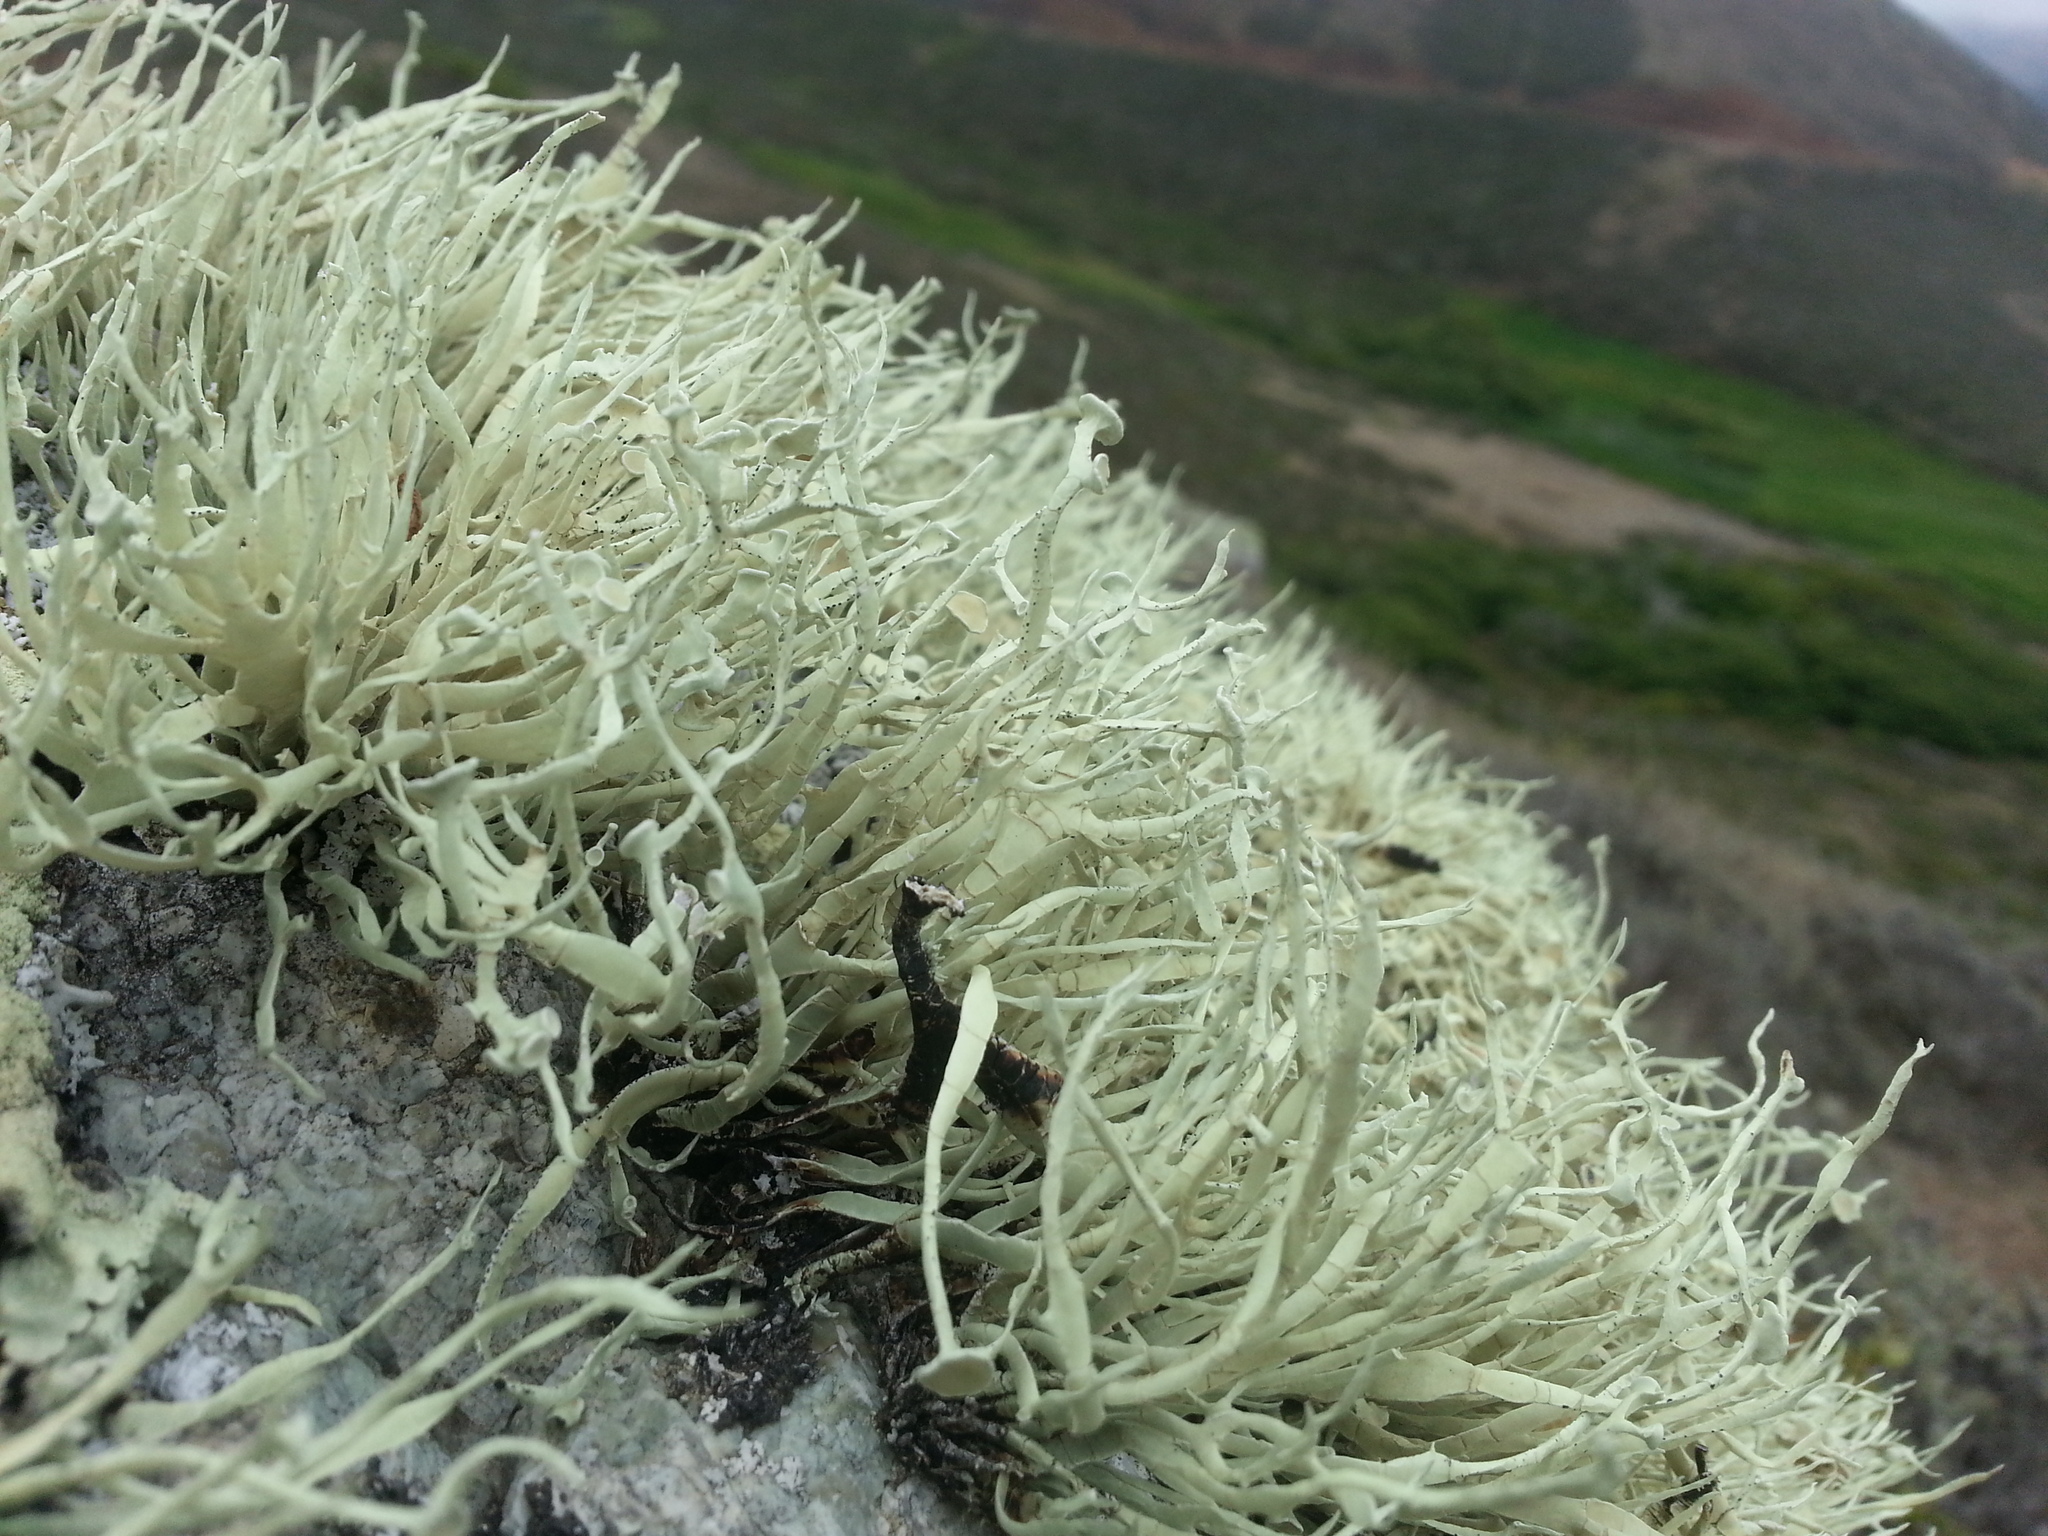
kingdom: Fungi
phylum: Ascomycota
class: Lecanoromycetes
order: Lecanorales
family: Ramalinaceae
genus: Niebla
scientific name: Niebla homalea
